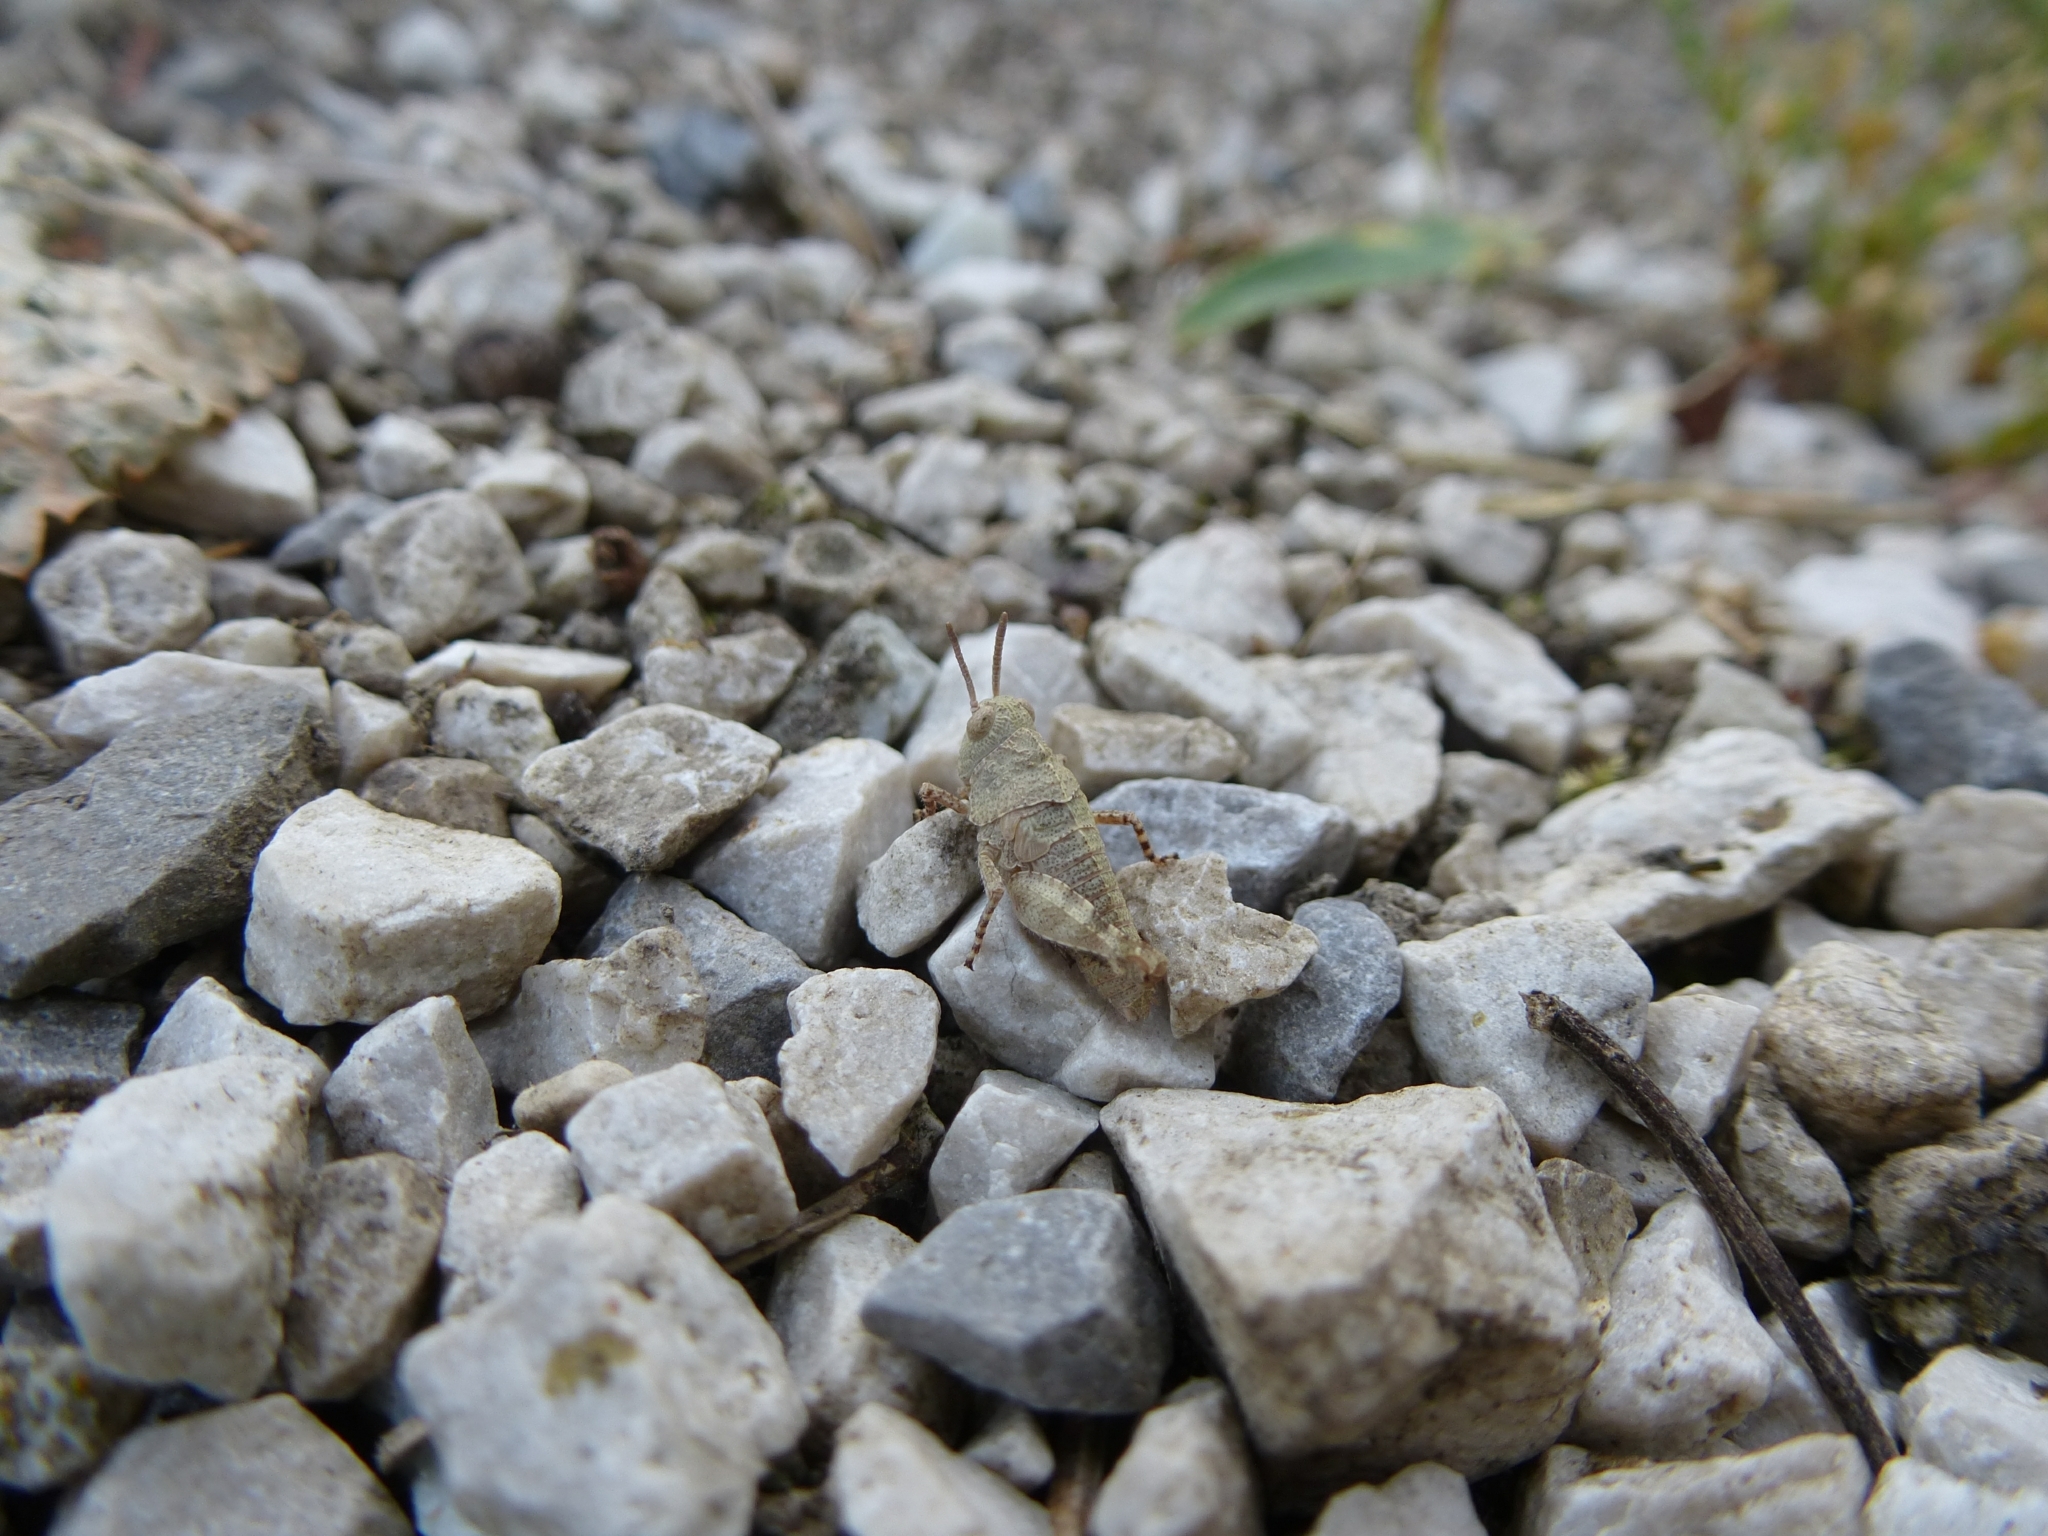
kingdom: Animalia
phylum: Arthropoda
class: Insecta
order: Orthoptera
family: Acrididae
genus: Oedipoda
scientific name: Oedipoda caerulescens
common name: Blue-winged grasshopper
